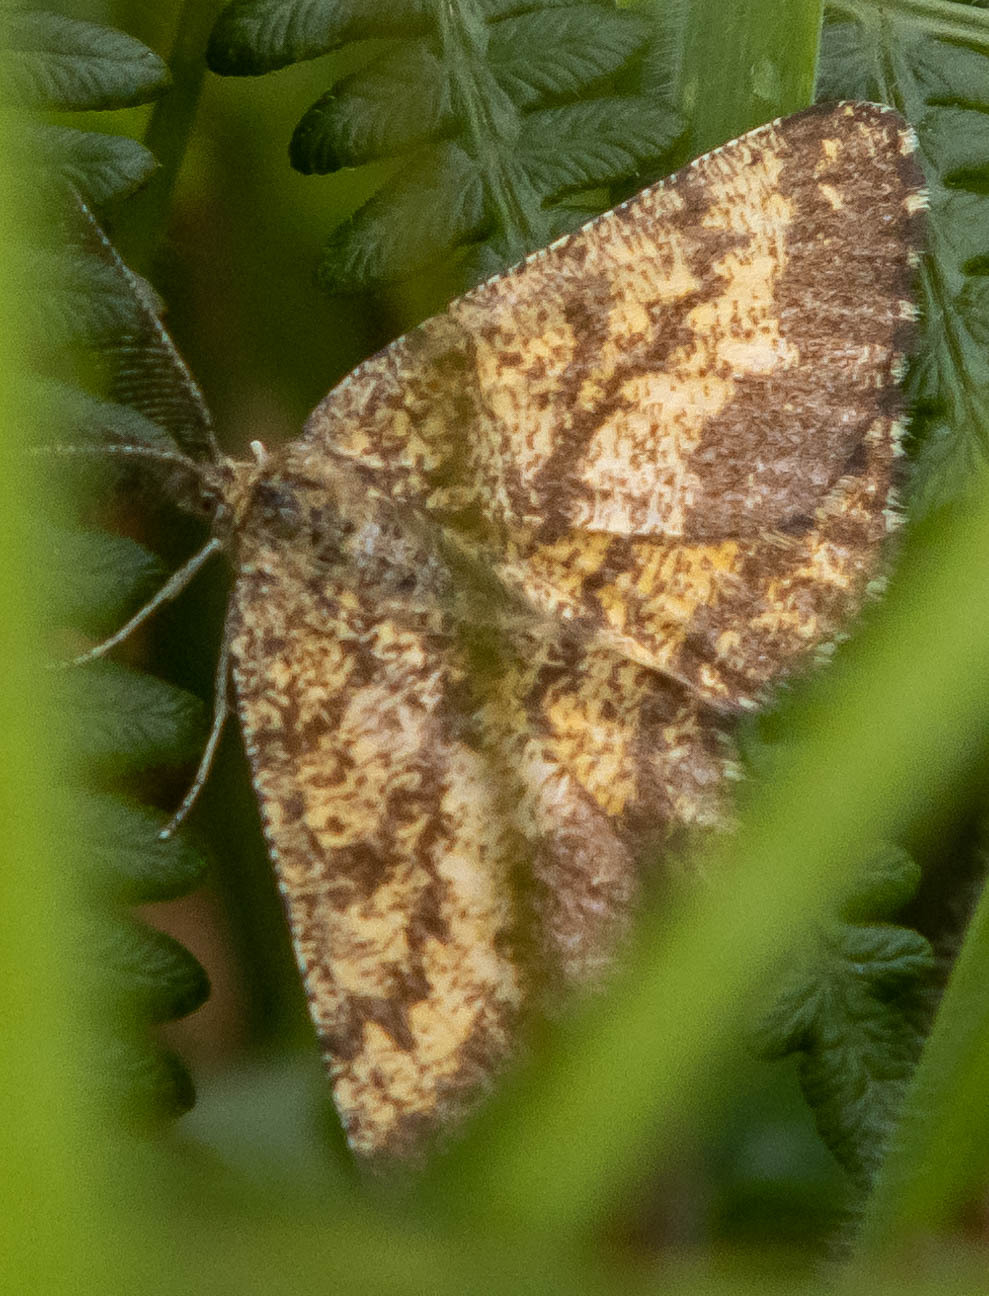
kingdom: Animalia
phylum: Arthropoda
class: Insecta
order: Lepidoptera
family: Geometridae
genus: Ematurga
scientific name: Ematurga atomaria
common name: Common heath
